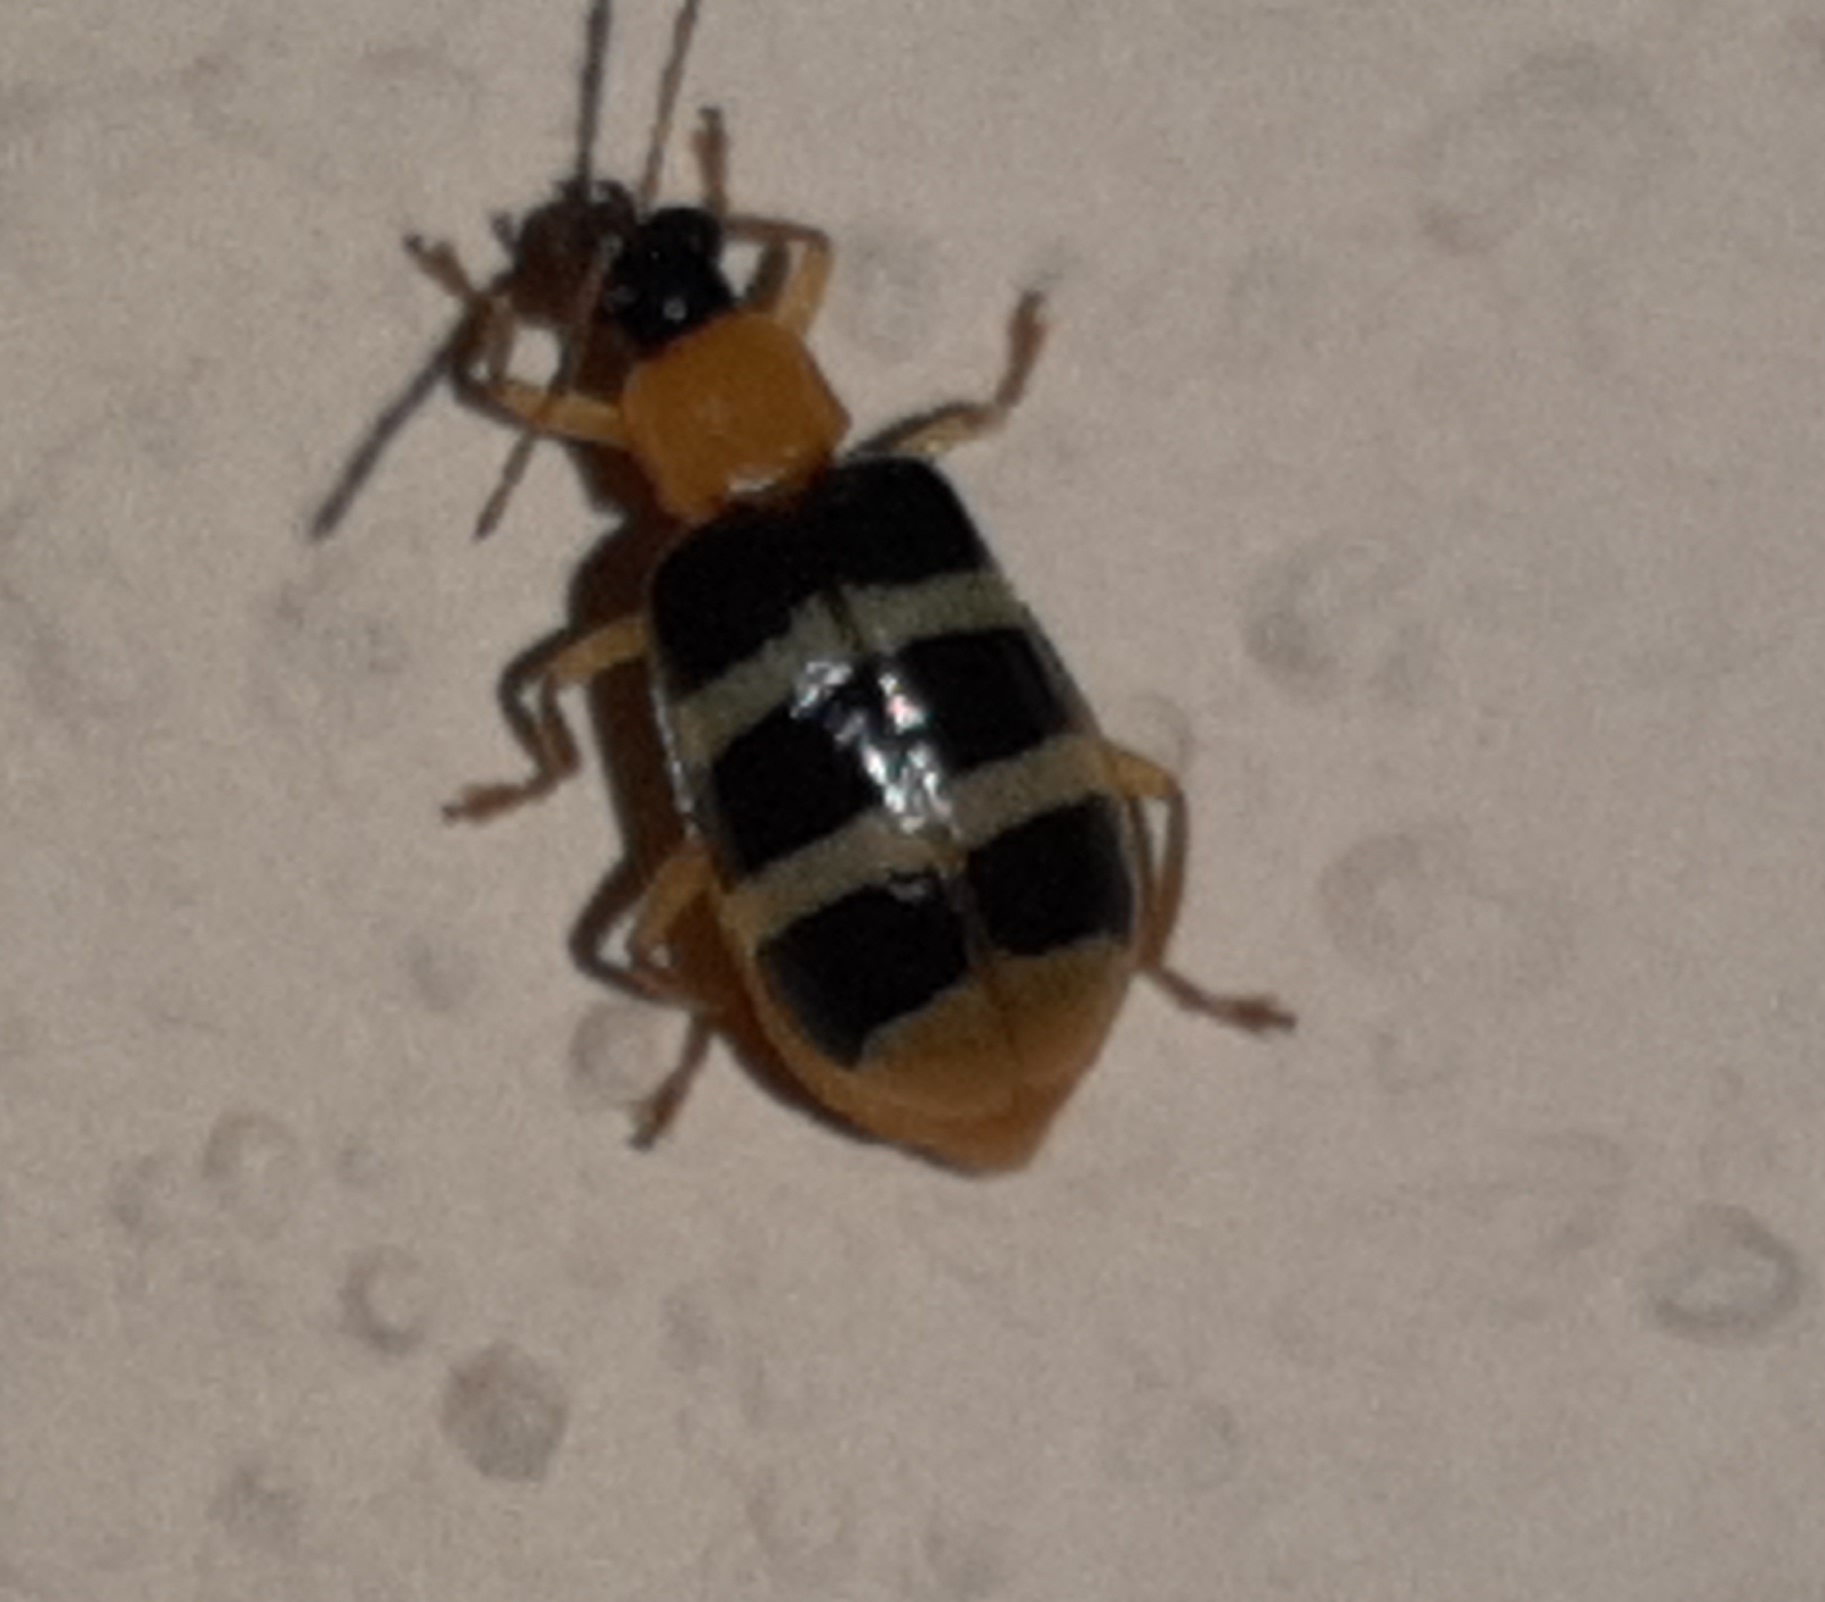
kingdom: Animalia
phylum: Arthropoda
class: Insecta
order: Coleoptera
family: Chrysomelidae
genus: Diabrotica
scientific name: Diabrotica
